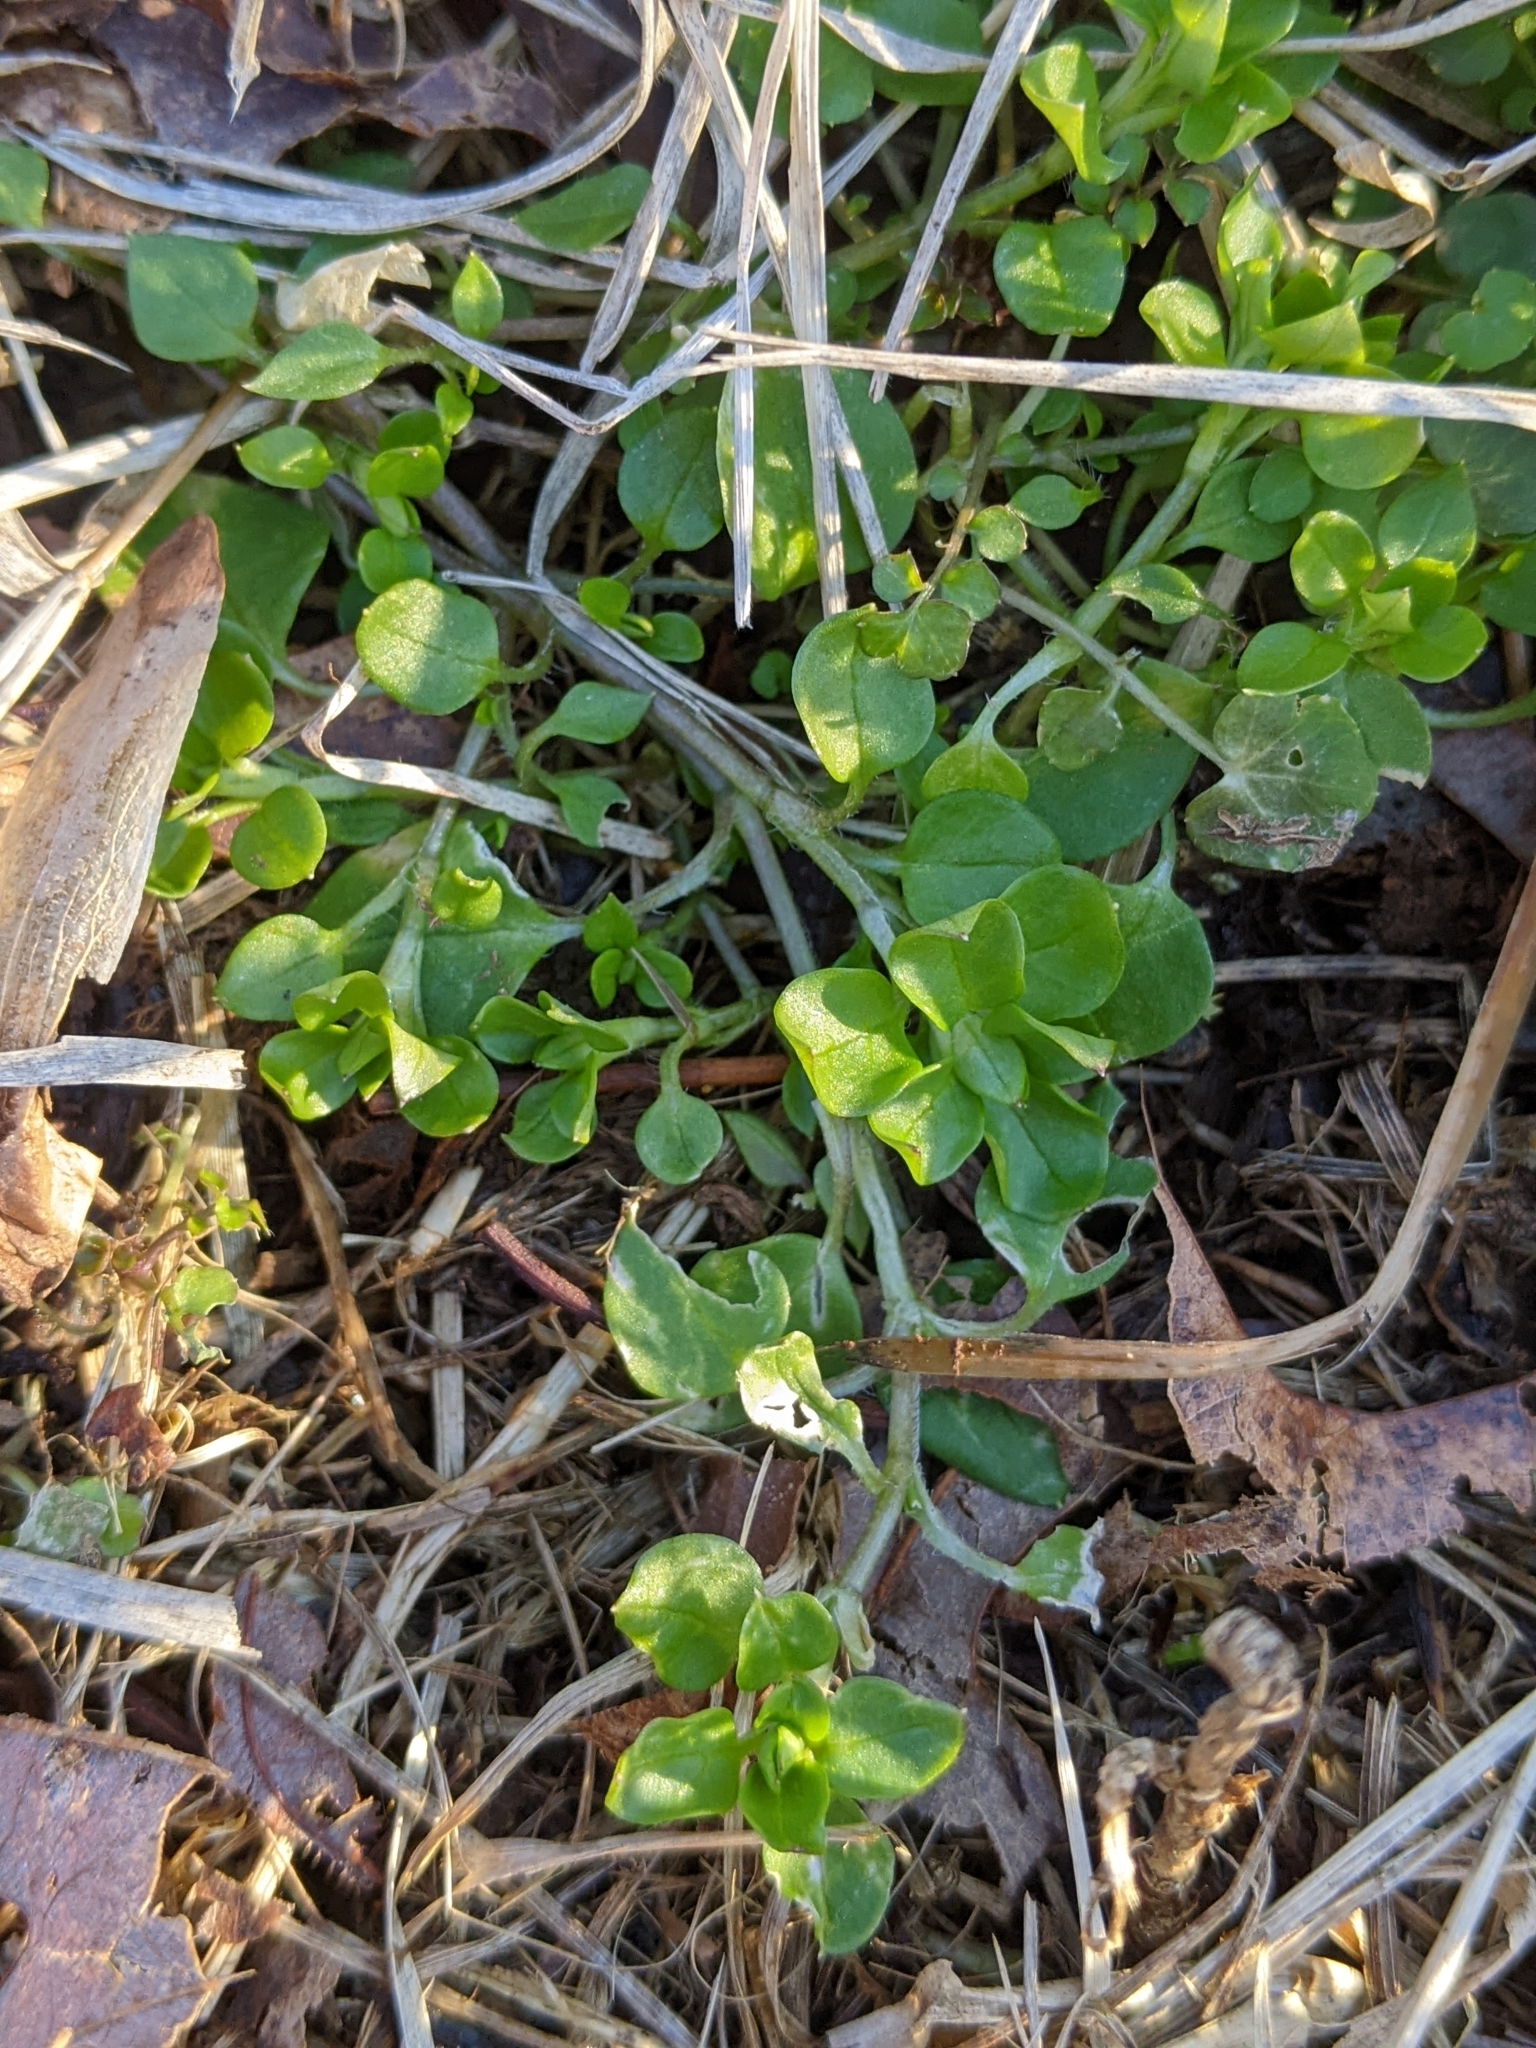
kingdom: Plantae
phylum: Tracheophyta
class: Magnoliopsida
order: Caryophyllales
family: Caryophyllaceae
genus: Stellaria
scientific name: Stellaria media
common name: Common chickweed
